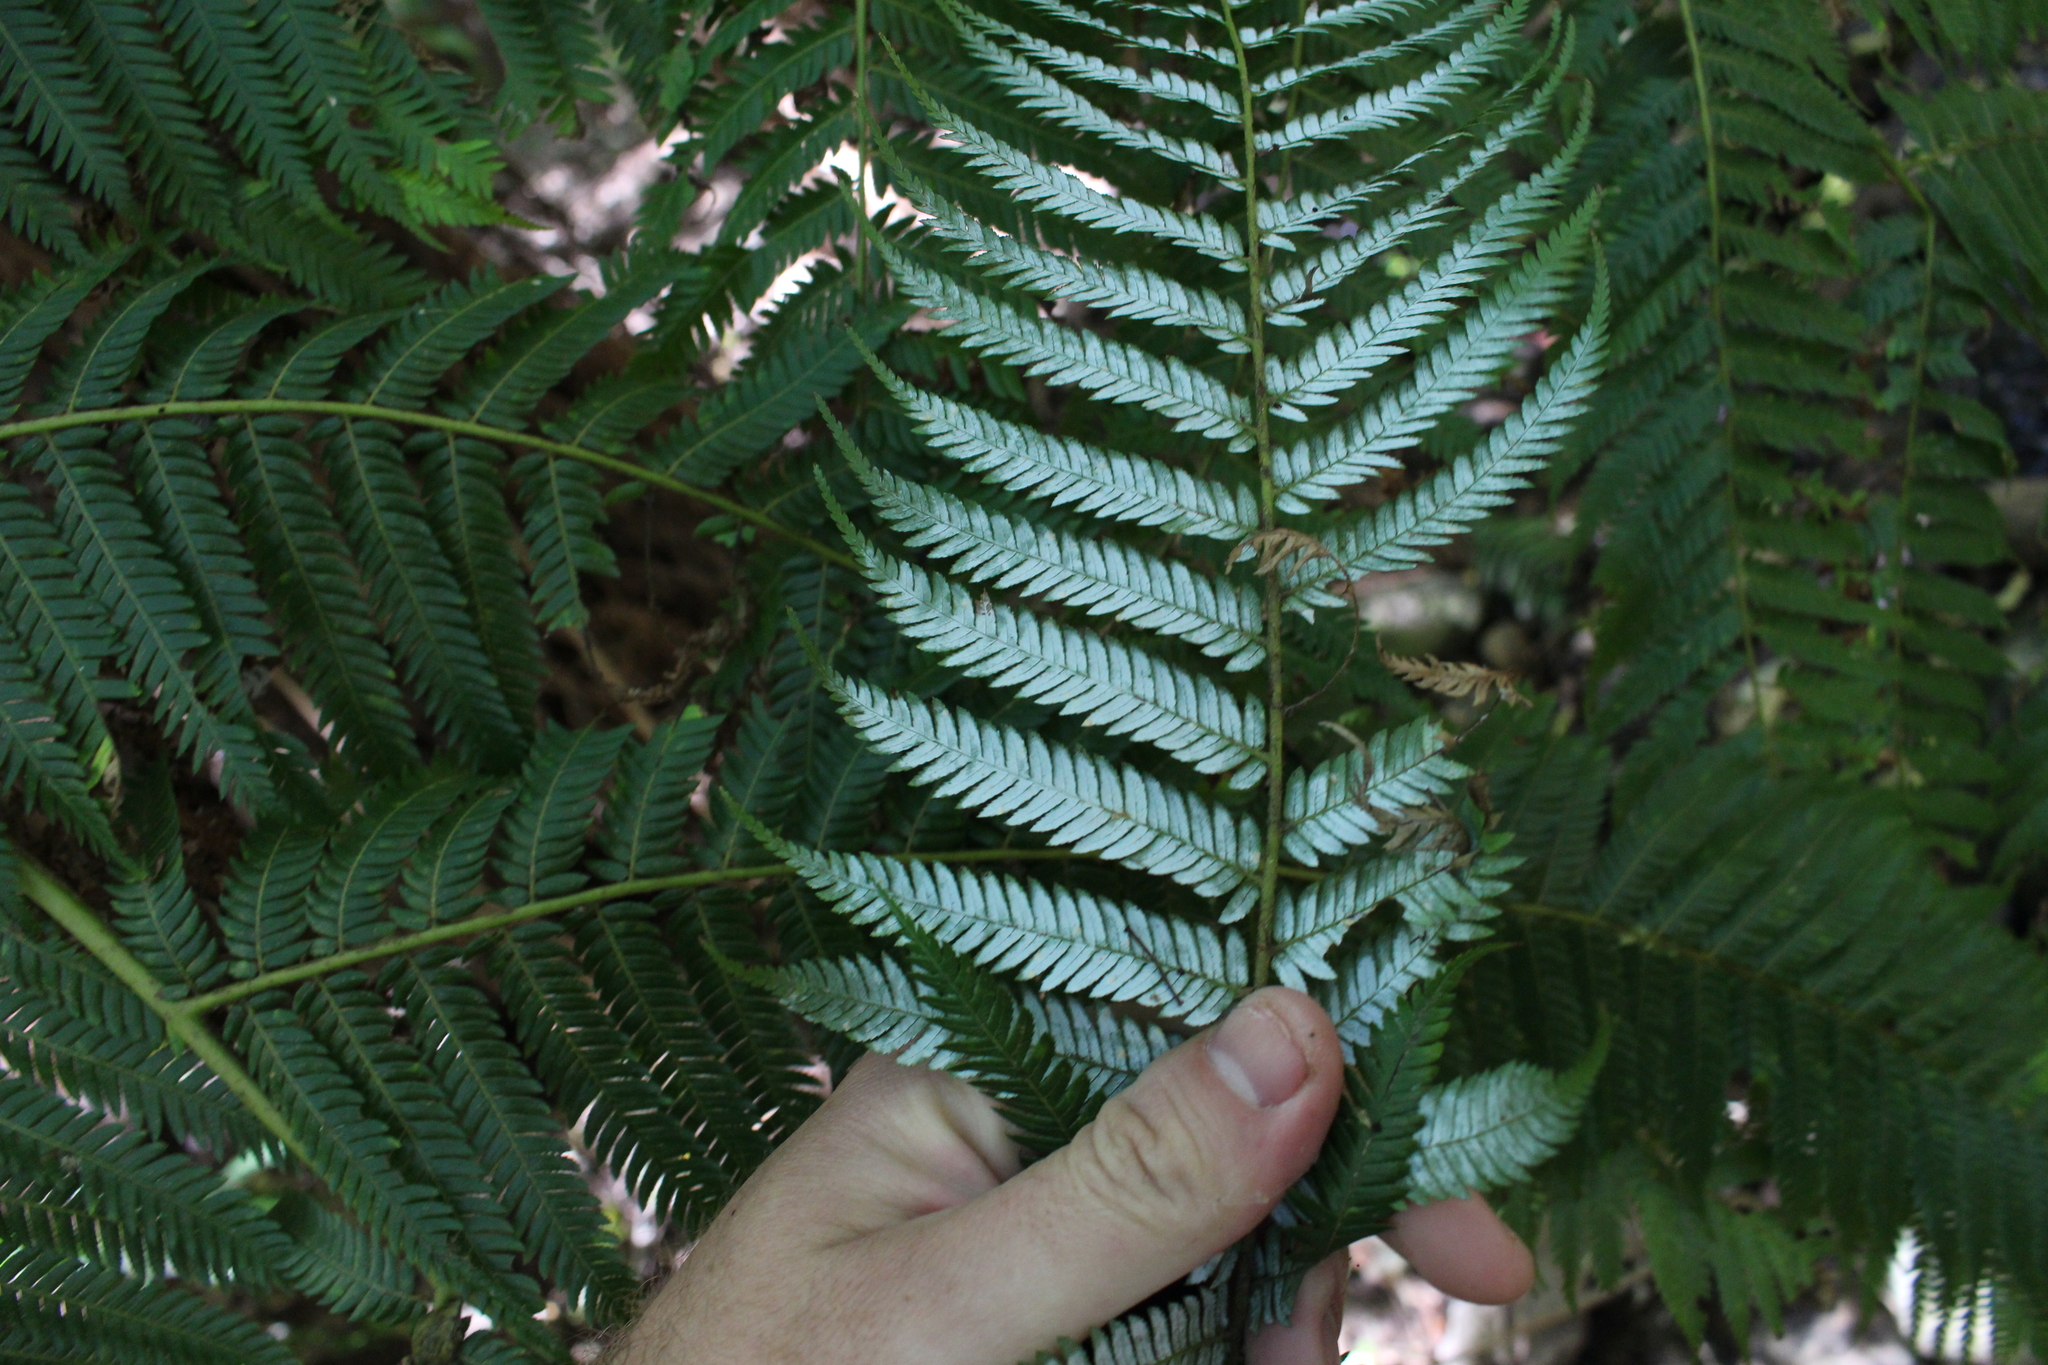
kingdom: Plantae
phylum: Tracheophyta
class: Polypodiopsida
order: Cyatheales
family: Cyatheaceae
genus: Alsophila
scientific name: Alsophila dealbata
